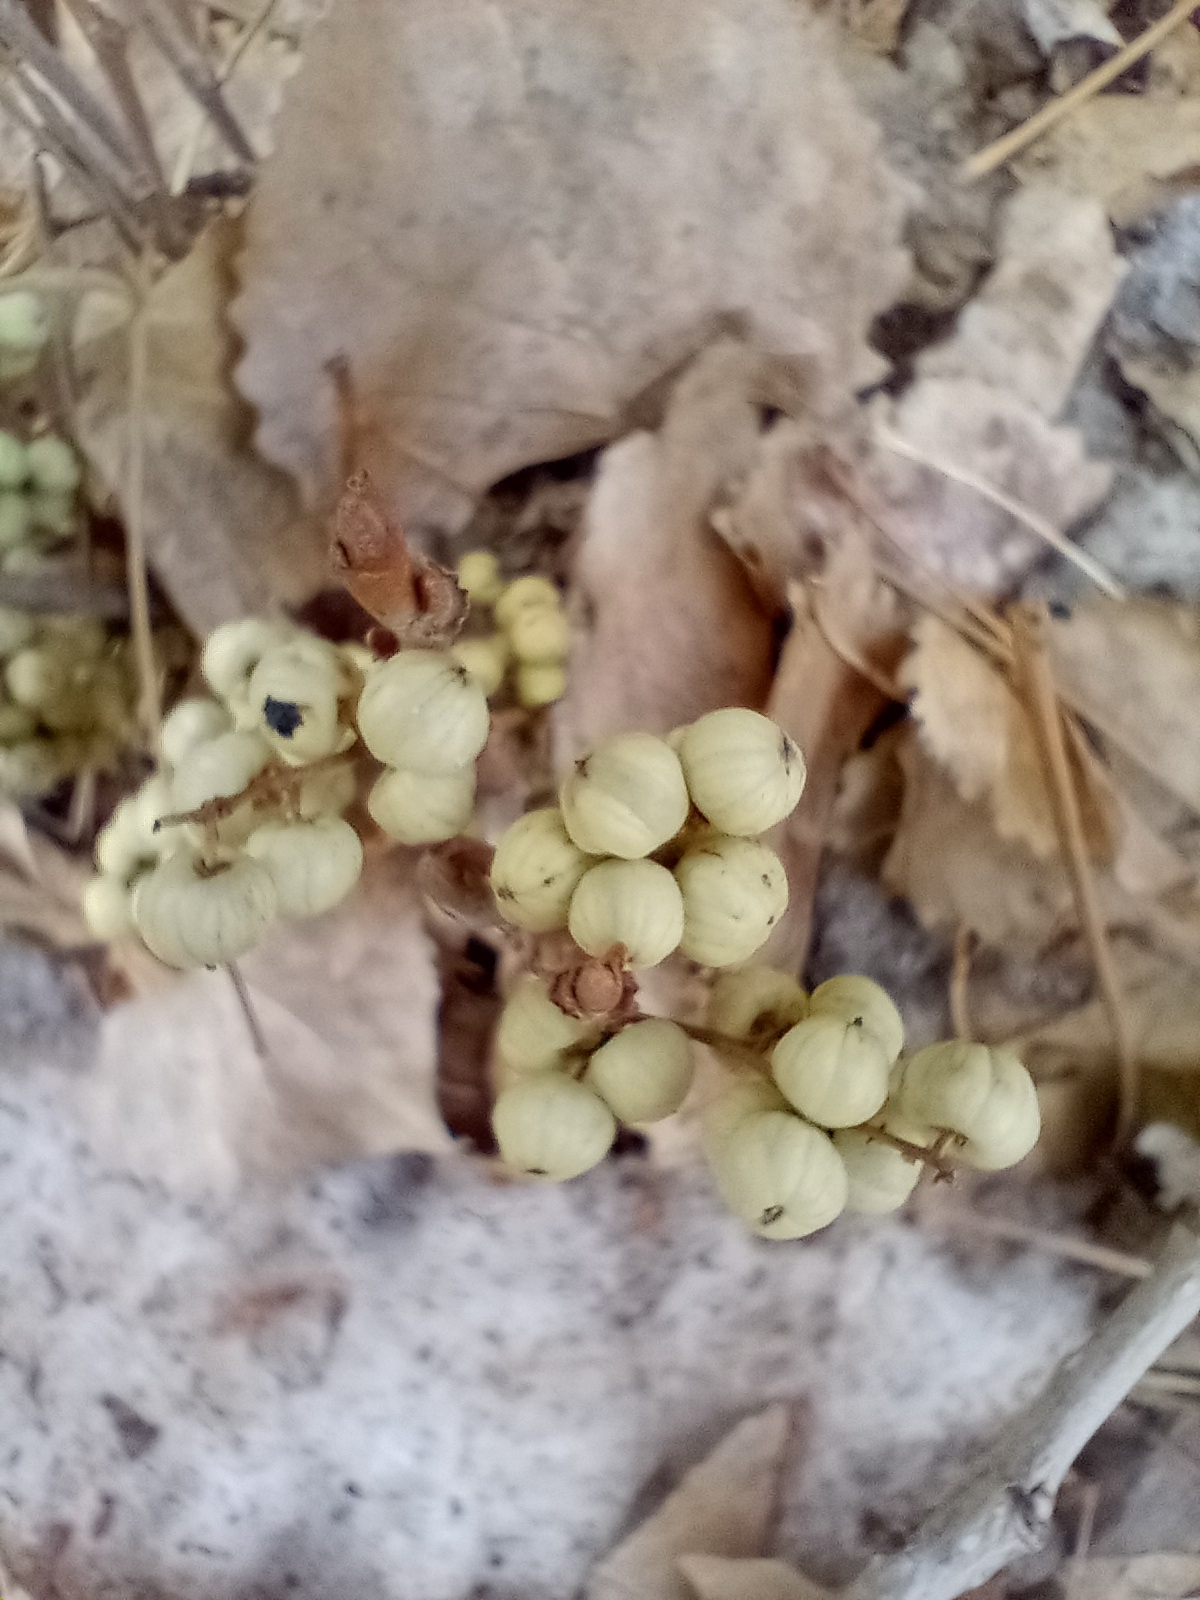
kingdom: Plantae
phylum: Tracheophyta
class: Magnoliopsida
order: Sapindales
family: Anacardiaceae
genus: Toxicodendron
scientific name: Toxicodendron rydbergii
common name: Rydberg's poison-ivy
